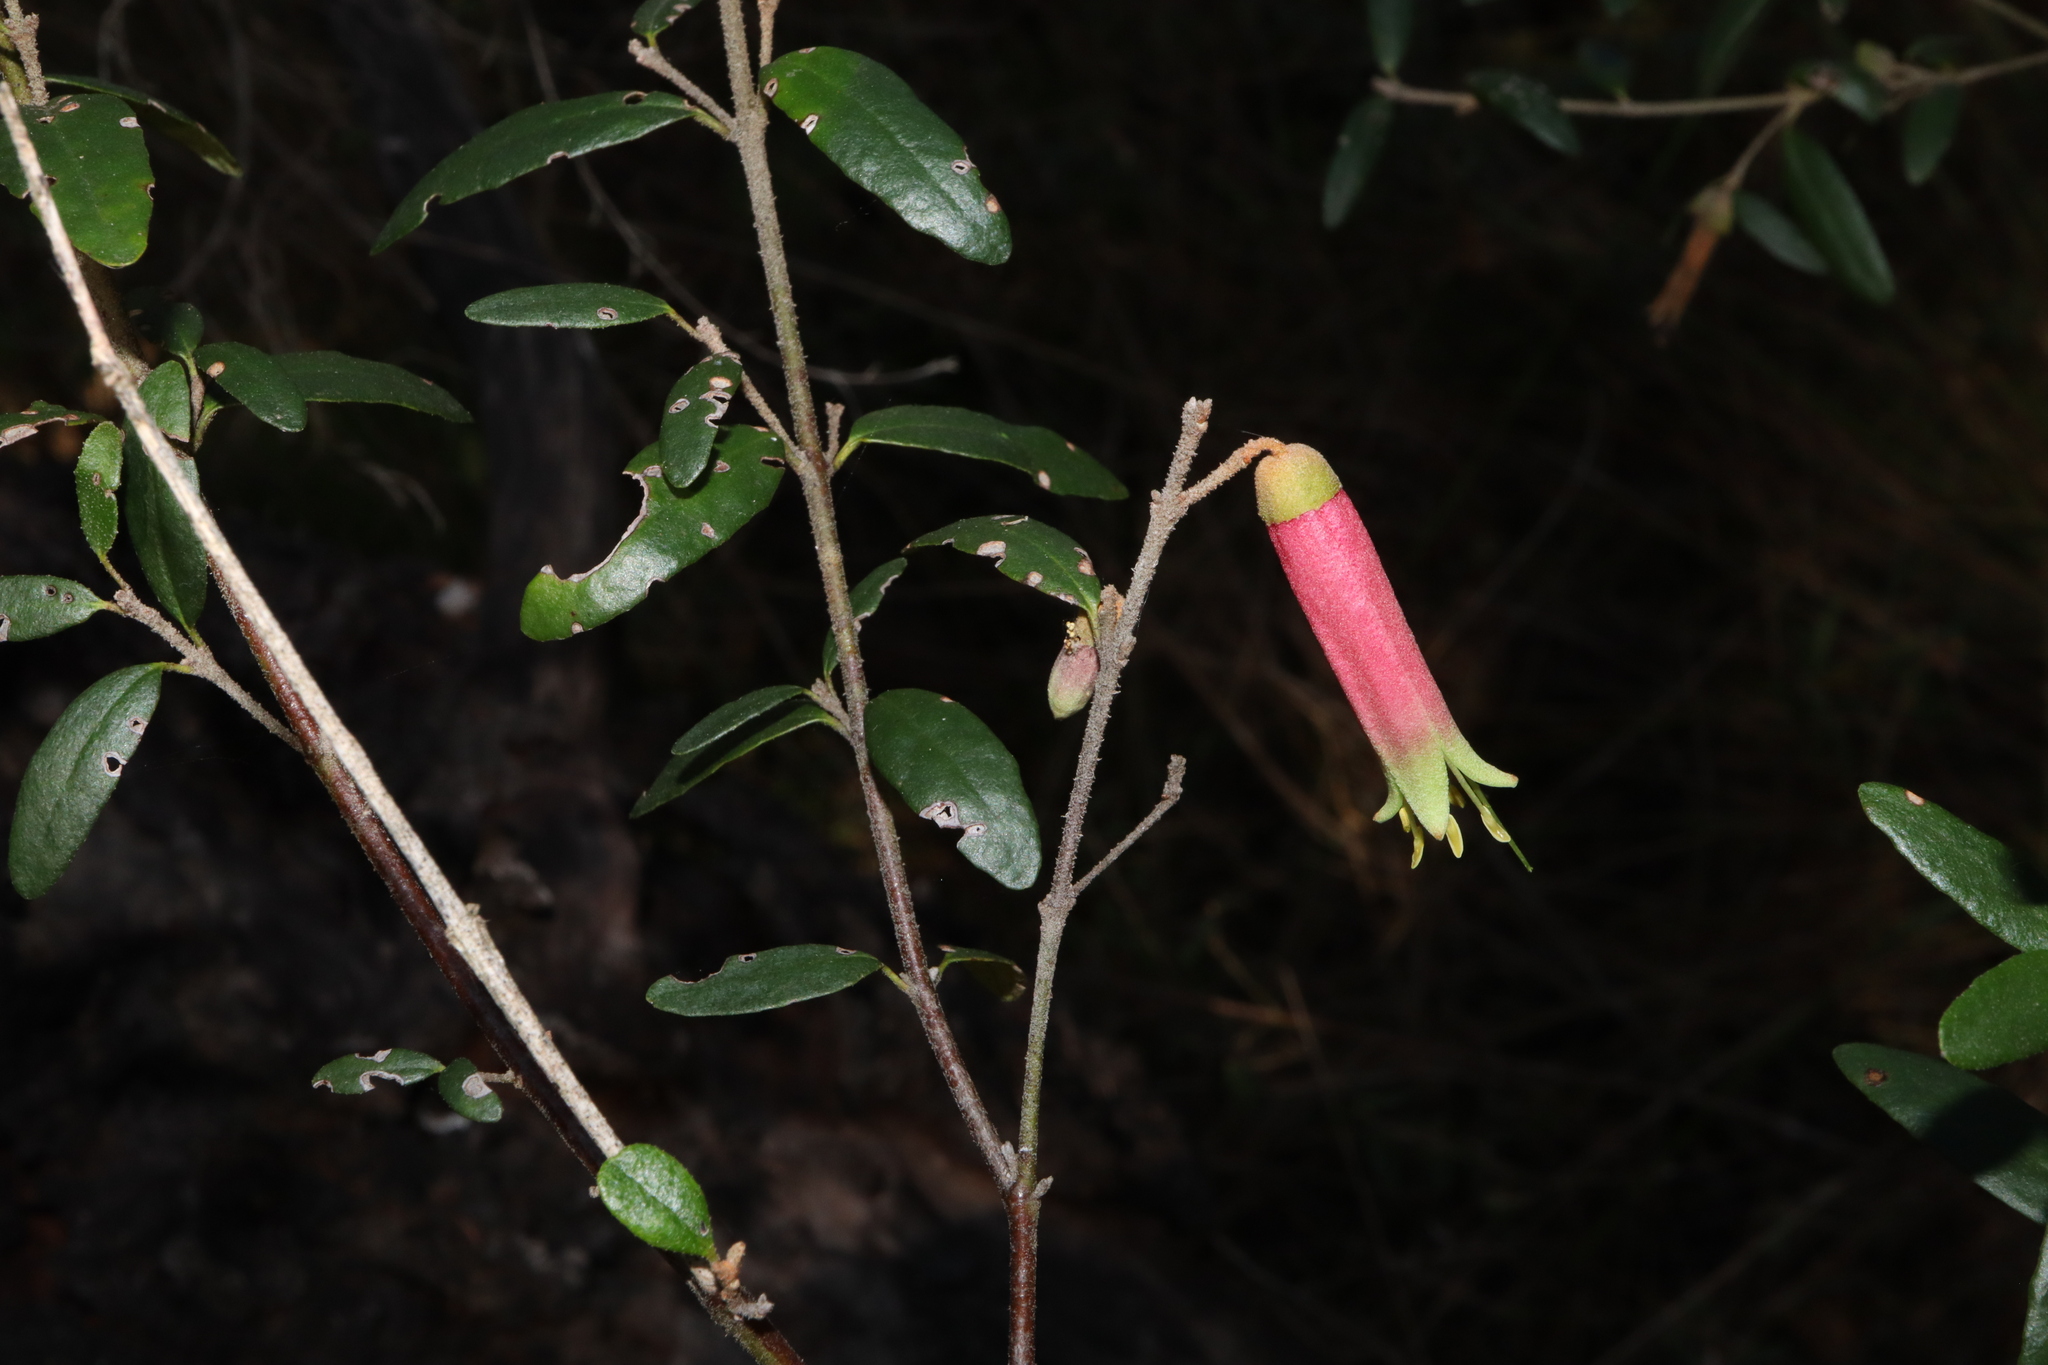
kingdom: Plantae
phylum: Tracheophyta
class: Magnoliopsida
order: Sapindales
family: Rutaceae
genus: Correa
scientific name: Correa reflexa
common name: Common correa
